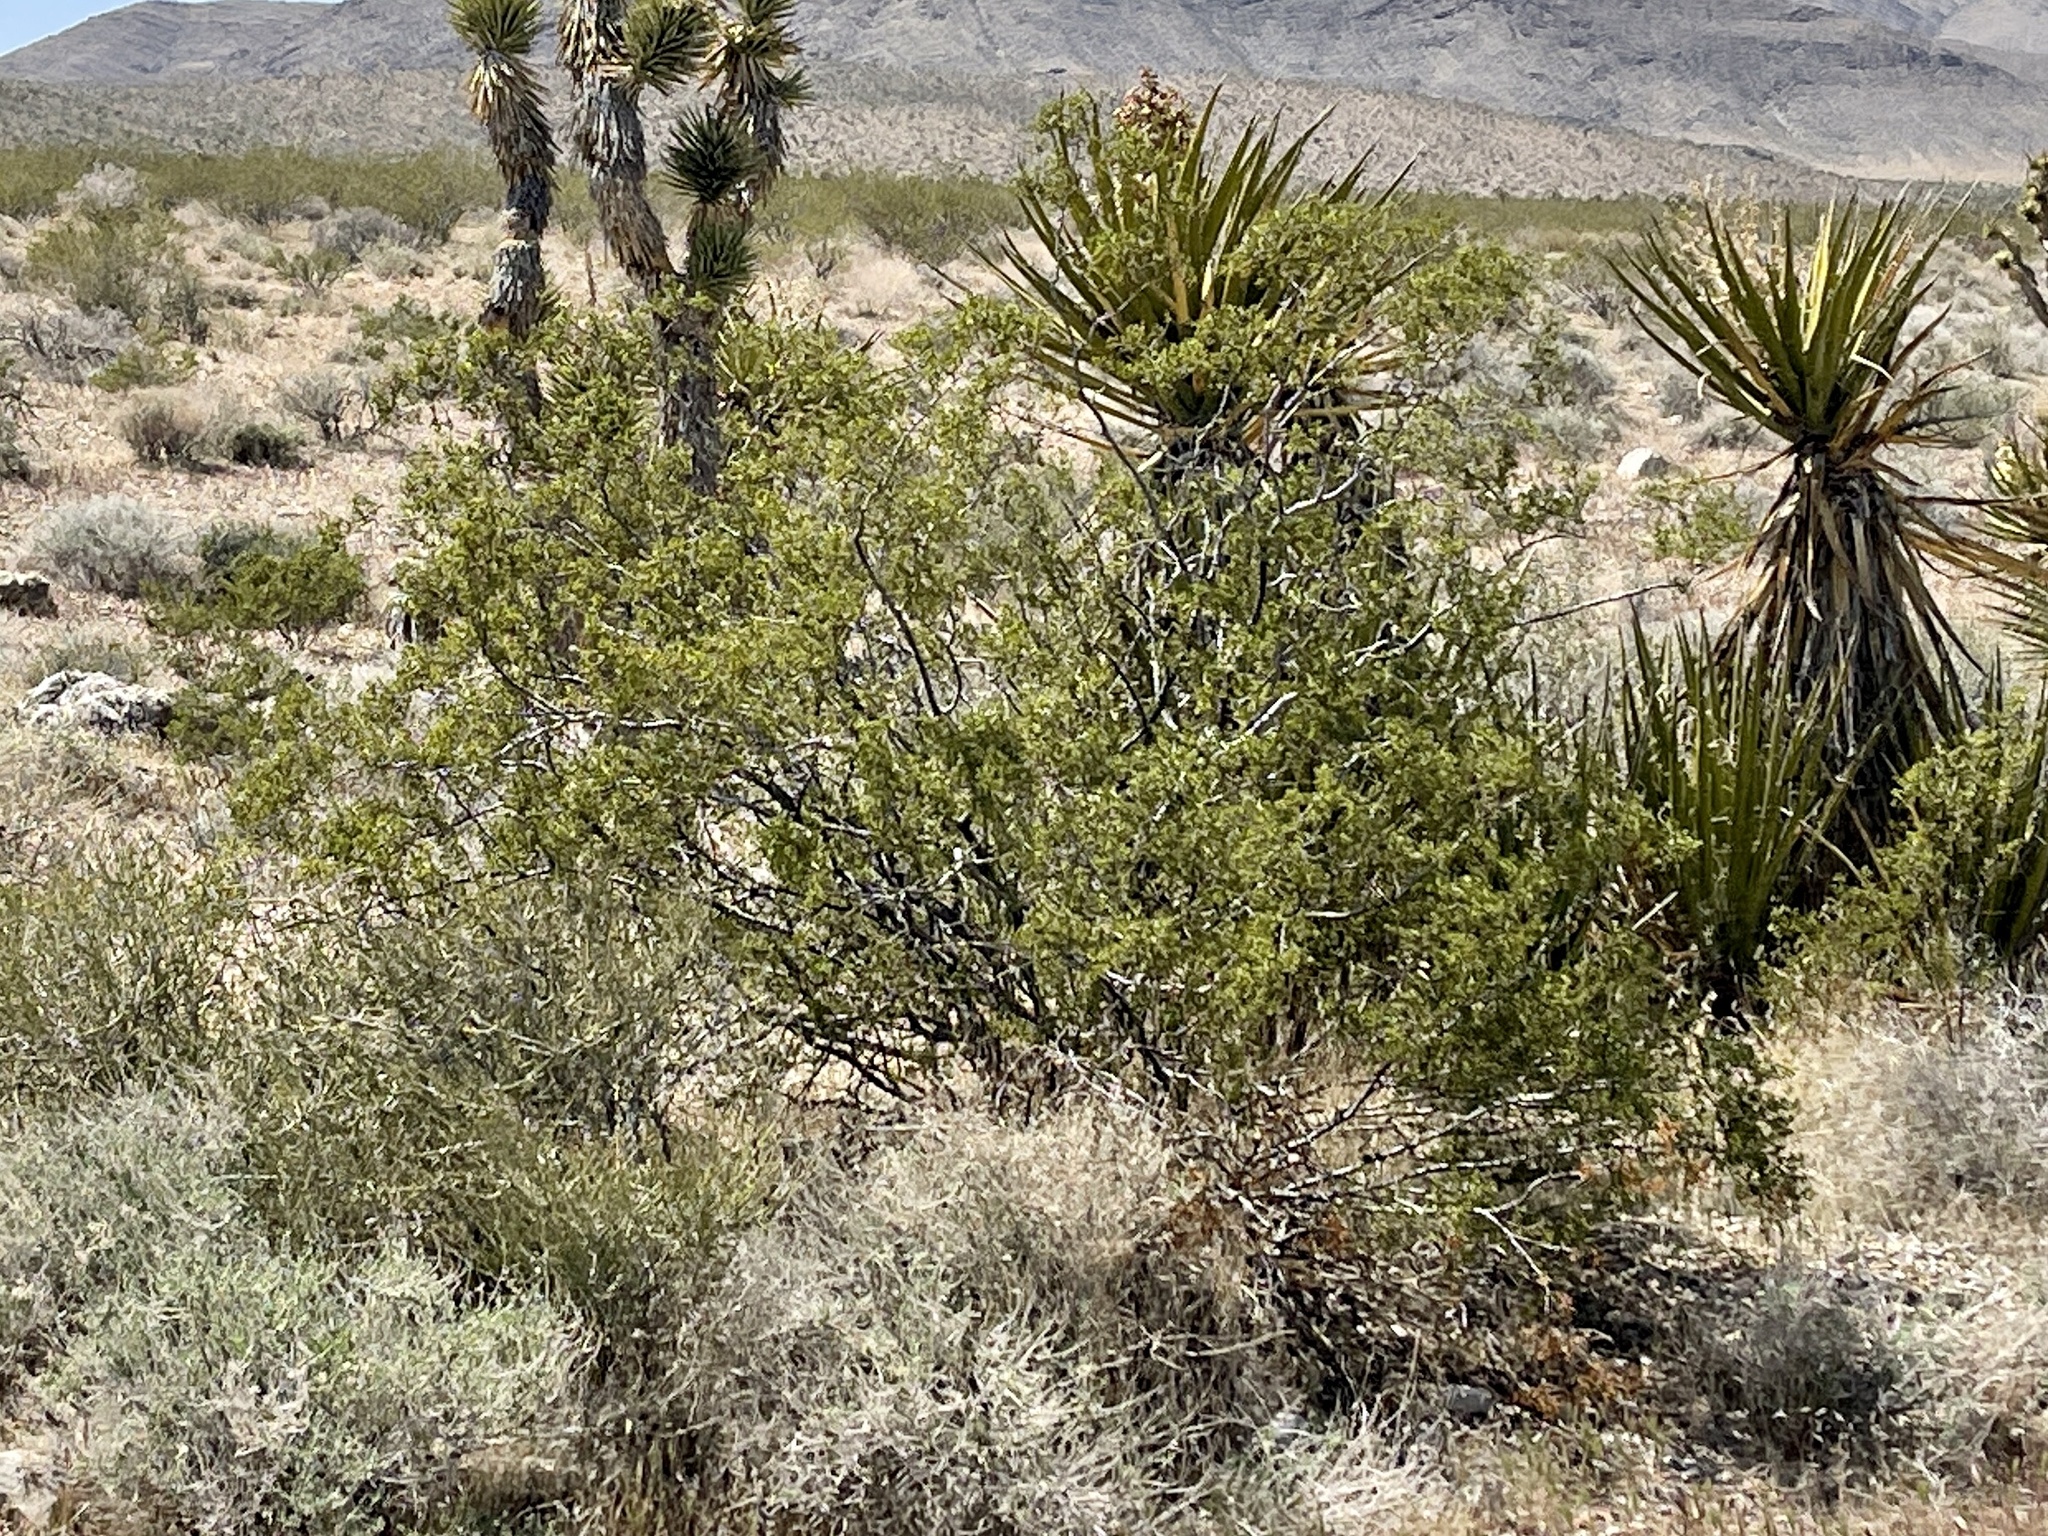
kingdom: Plantae
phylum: Tracheophyta
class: Magnoliopsida
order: Zygophyllales
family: Zygophyllaceae
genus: Larrea
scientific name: Larrea tridentata
